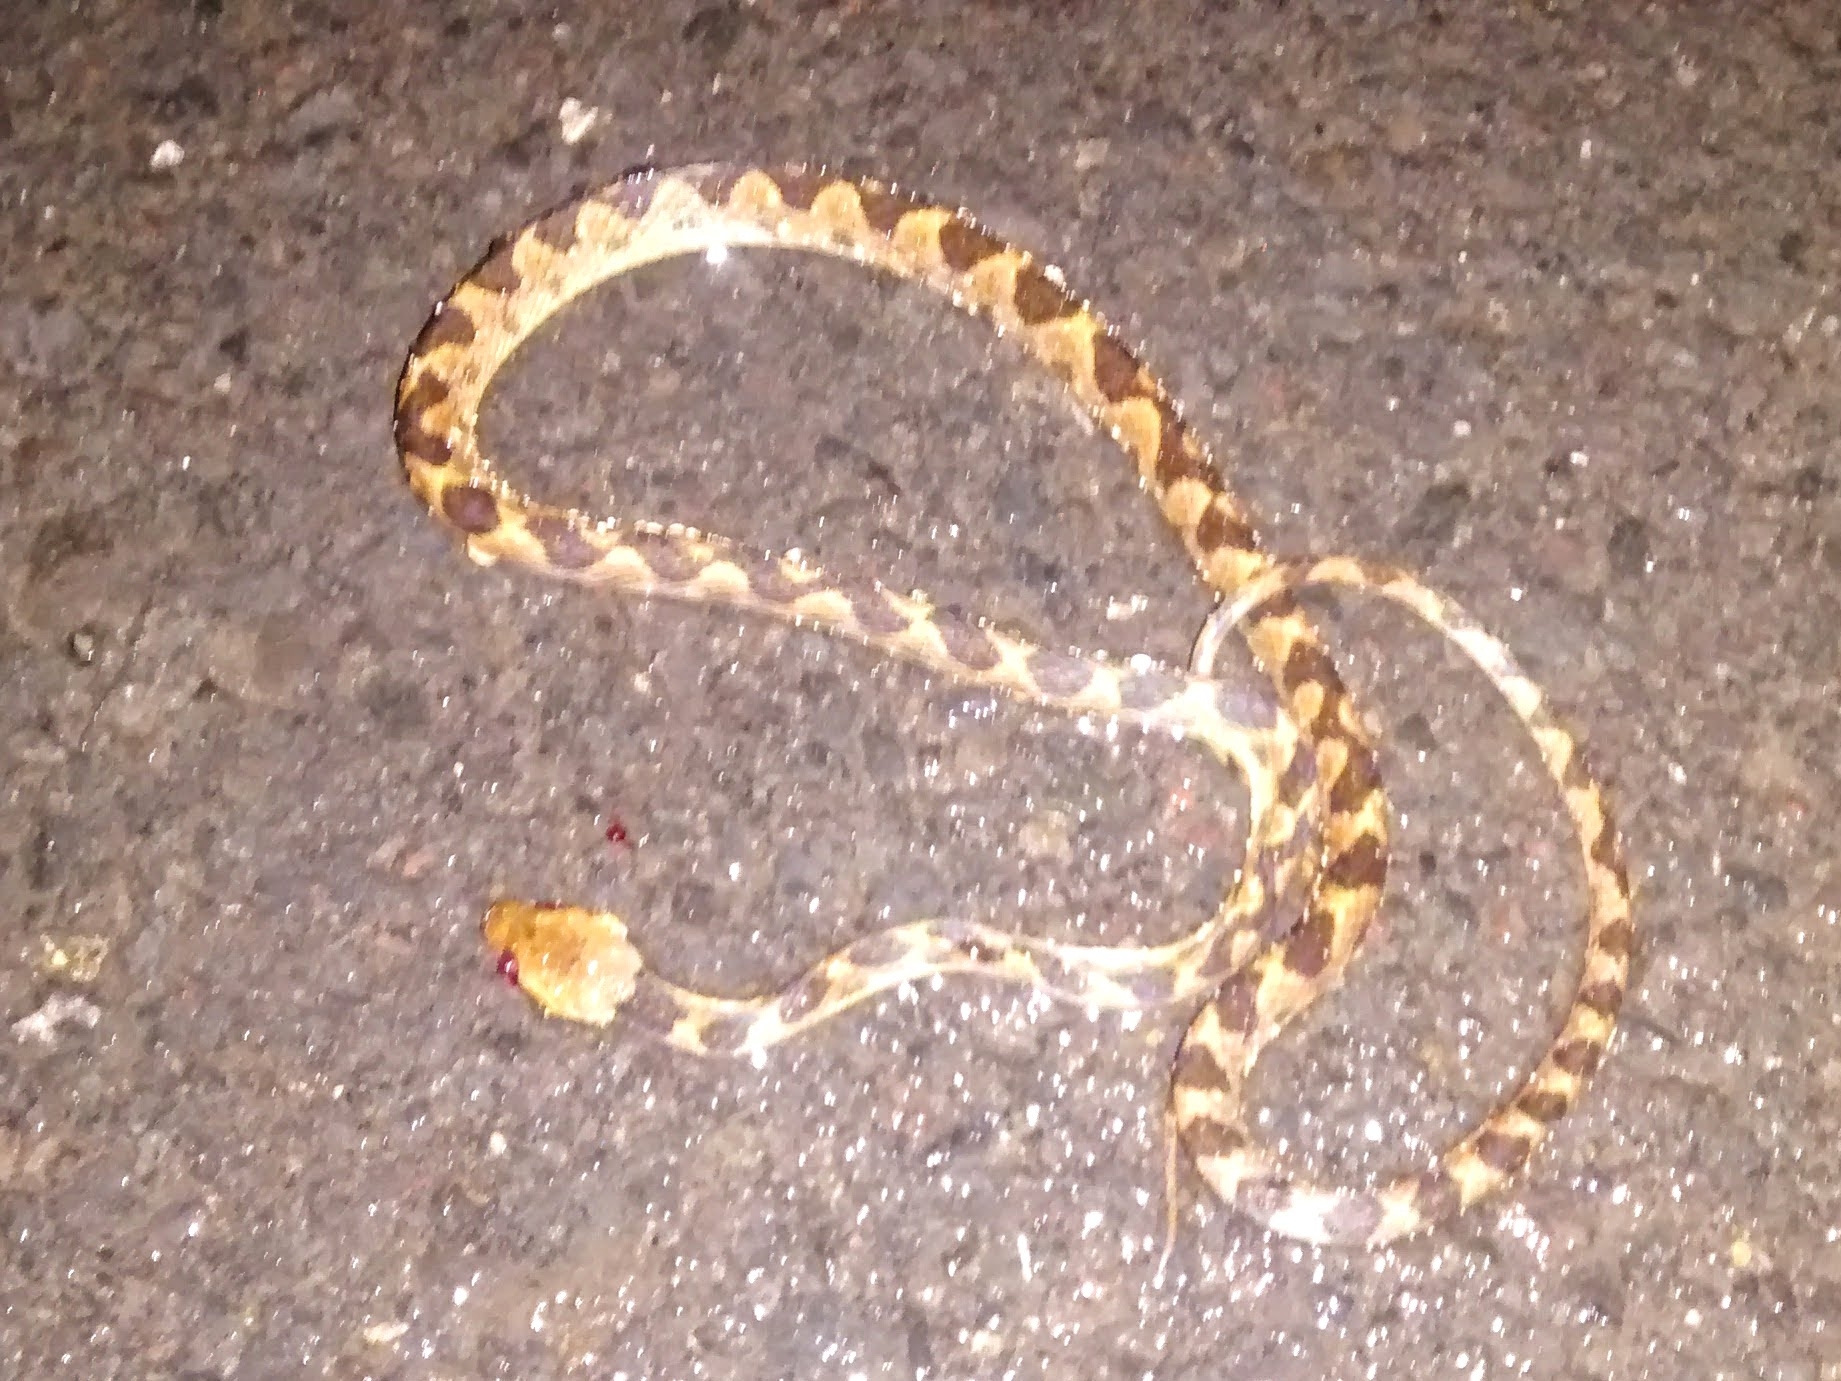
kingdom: Animalia
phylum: Chordata
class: Squamata
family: Colubridae
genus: Leptodeira
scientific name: Leptodeira ornata
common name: Northern cat-eyed snake
